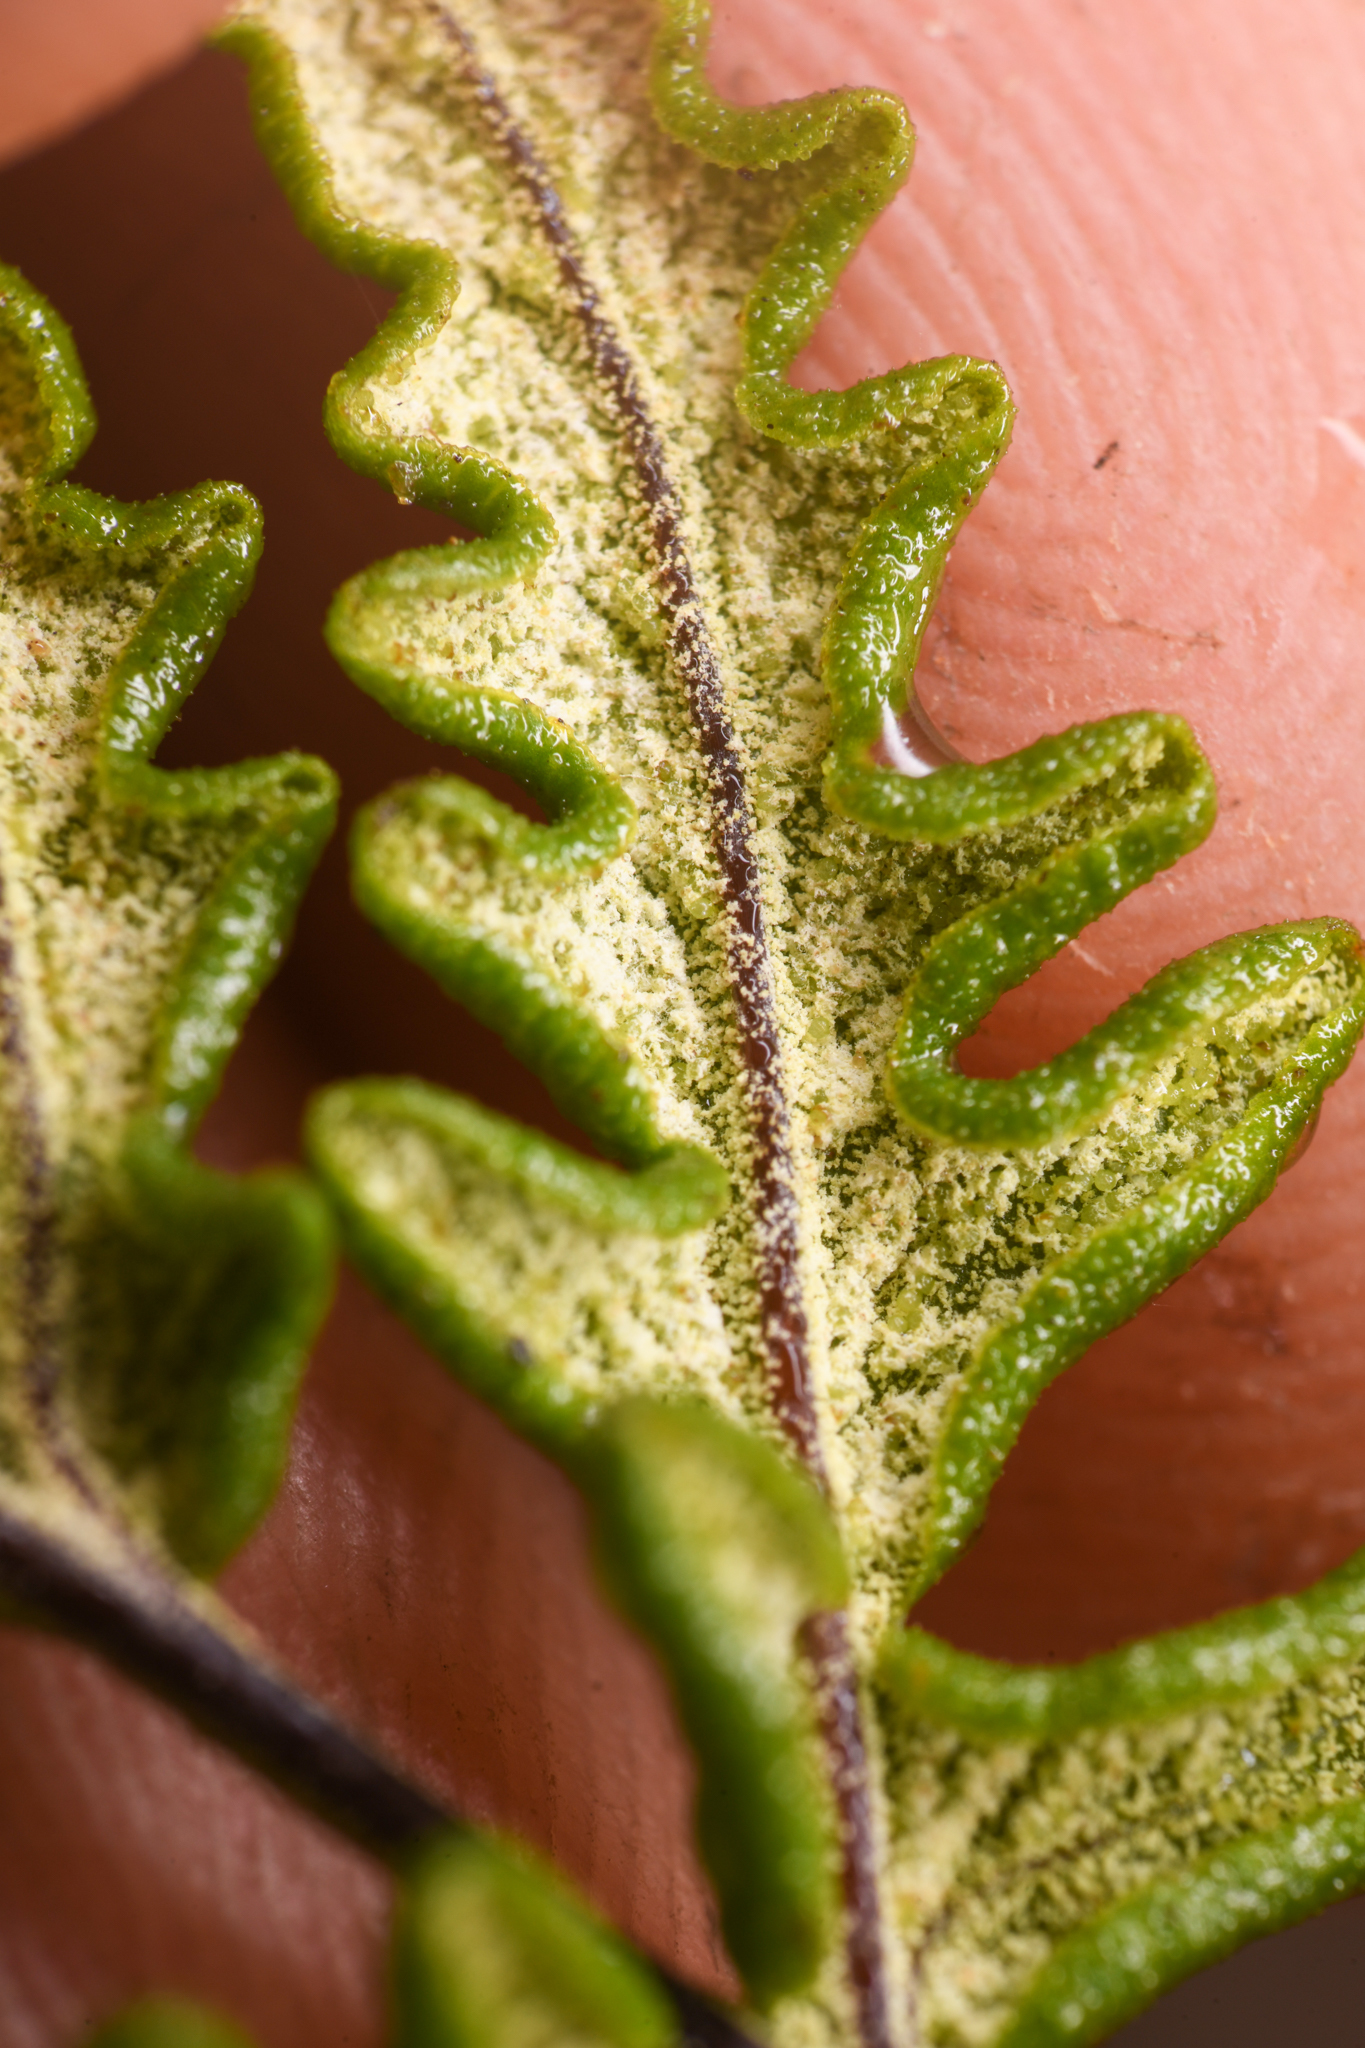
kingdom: Plantae
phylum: Tracheophyta
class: Polypodiopsida
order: Polypodiales
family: Pteridaceae
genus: Pentagramma
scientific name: Pentagramma viscosa
